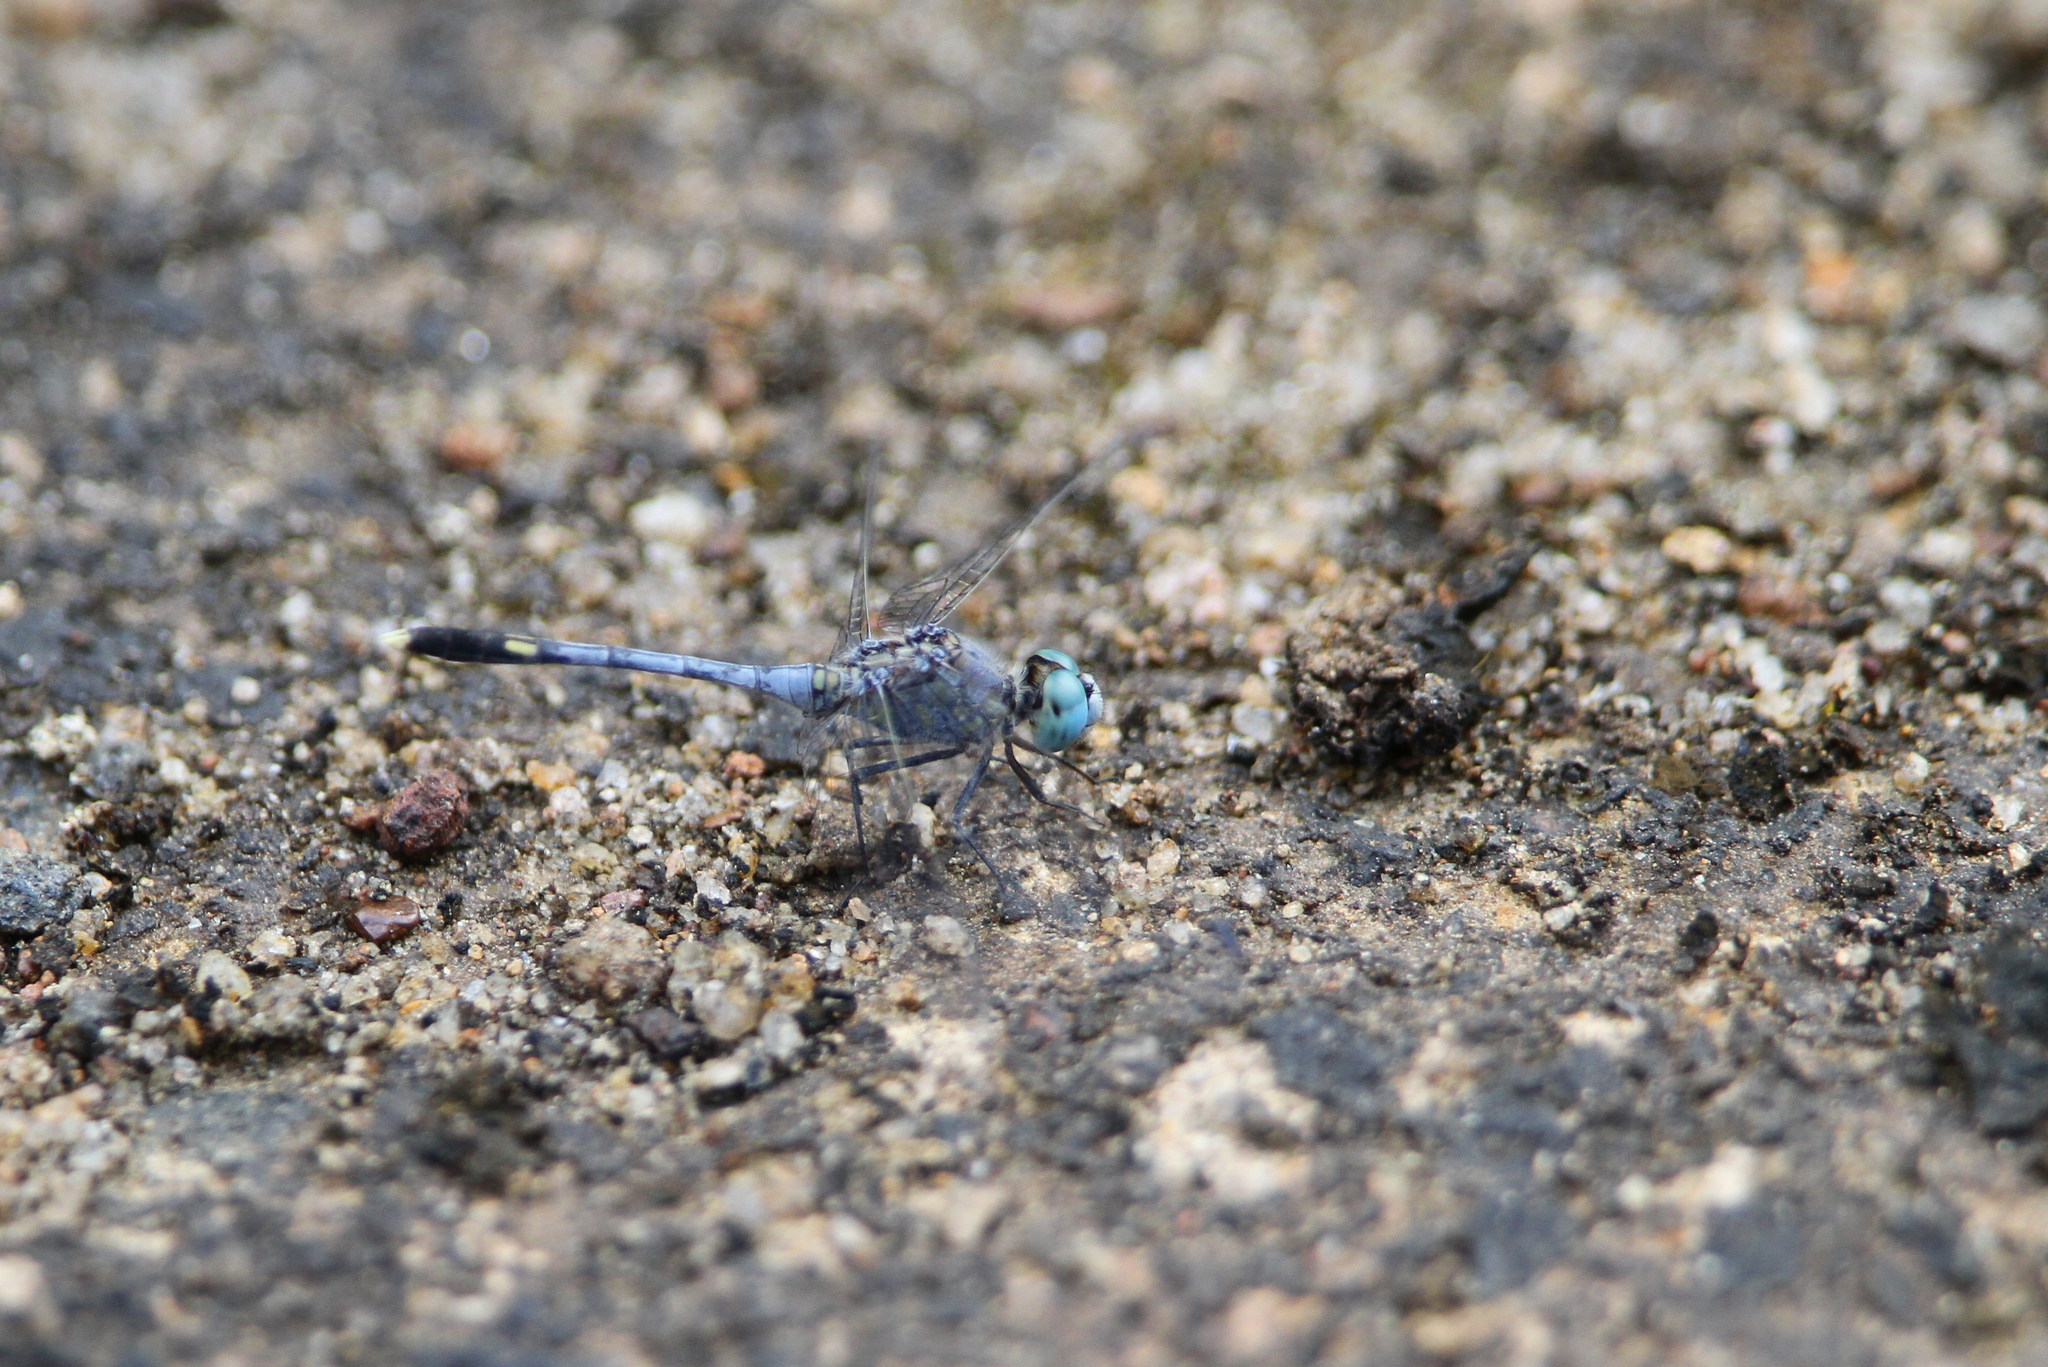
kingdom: Animalia
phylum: Arthropoda
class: Insecta
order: Odonata
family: Libellulidae
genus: Diplacodes
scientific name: Diplacodes trivialis
